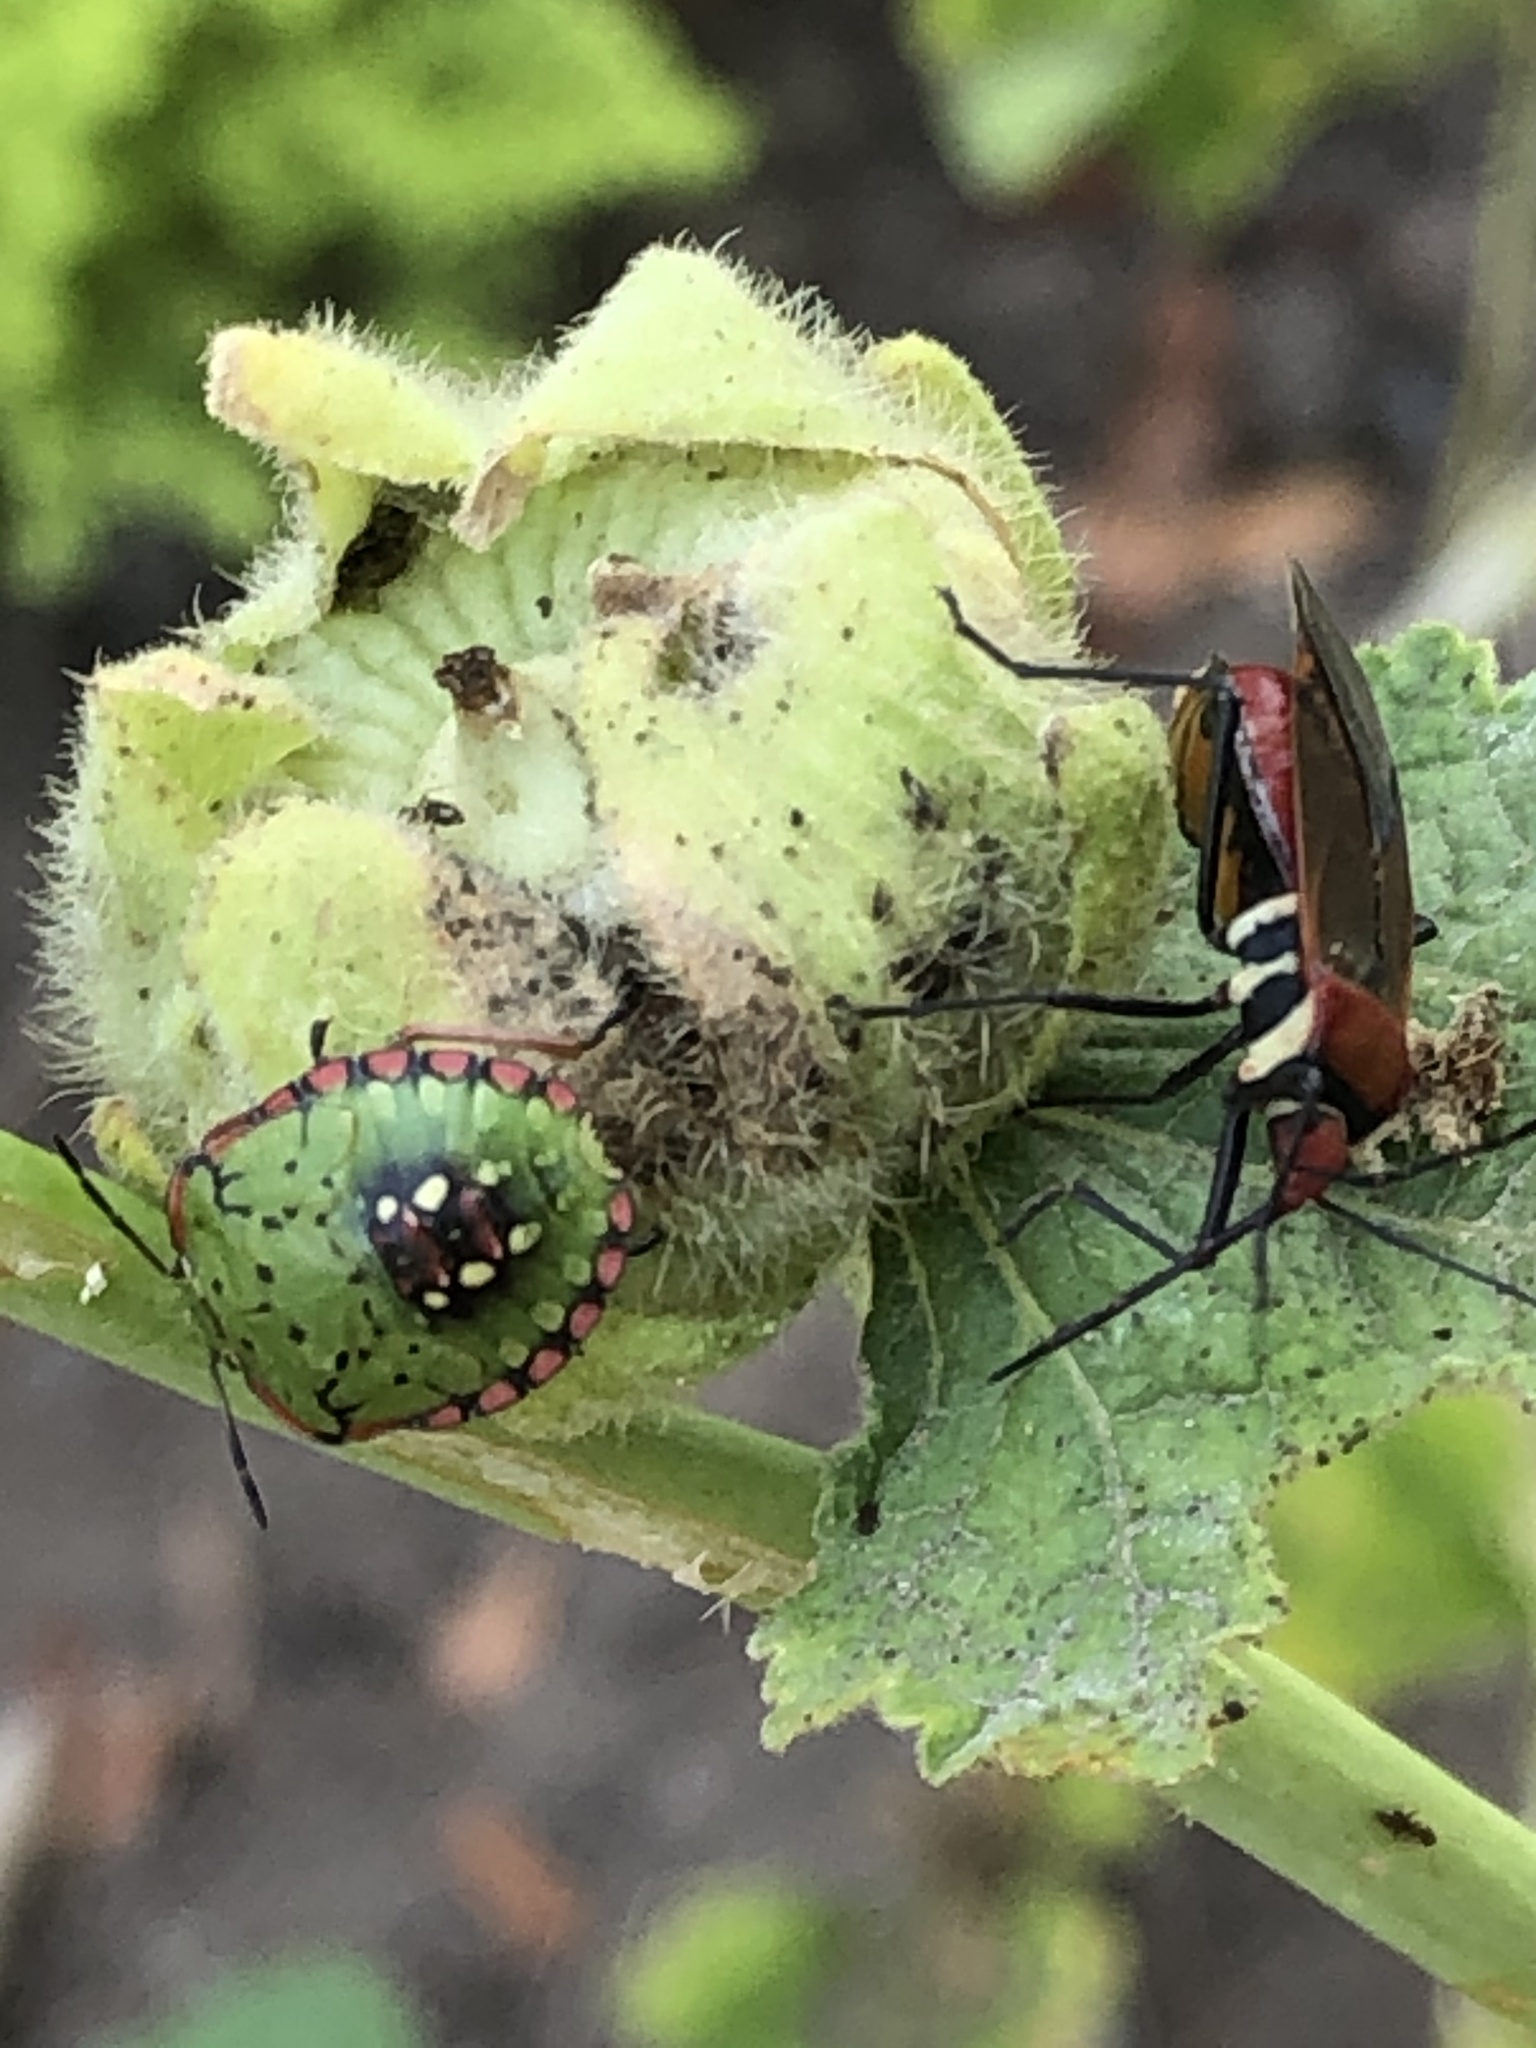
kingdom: Animalia
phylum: Arthropoda
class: Insecta
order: Hemiptera
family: Pentatomidae
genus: Nezara
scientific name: Nezara viridula
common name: Southern green stink bug
